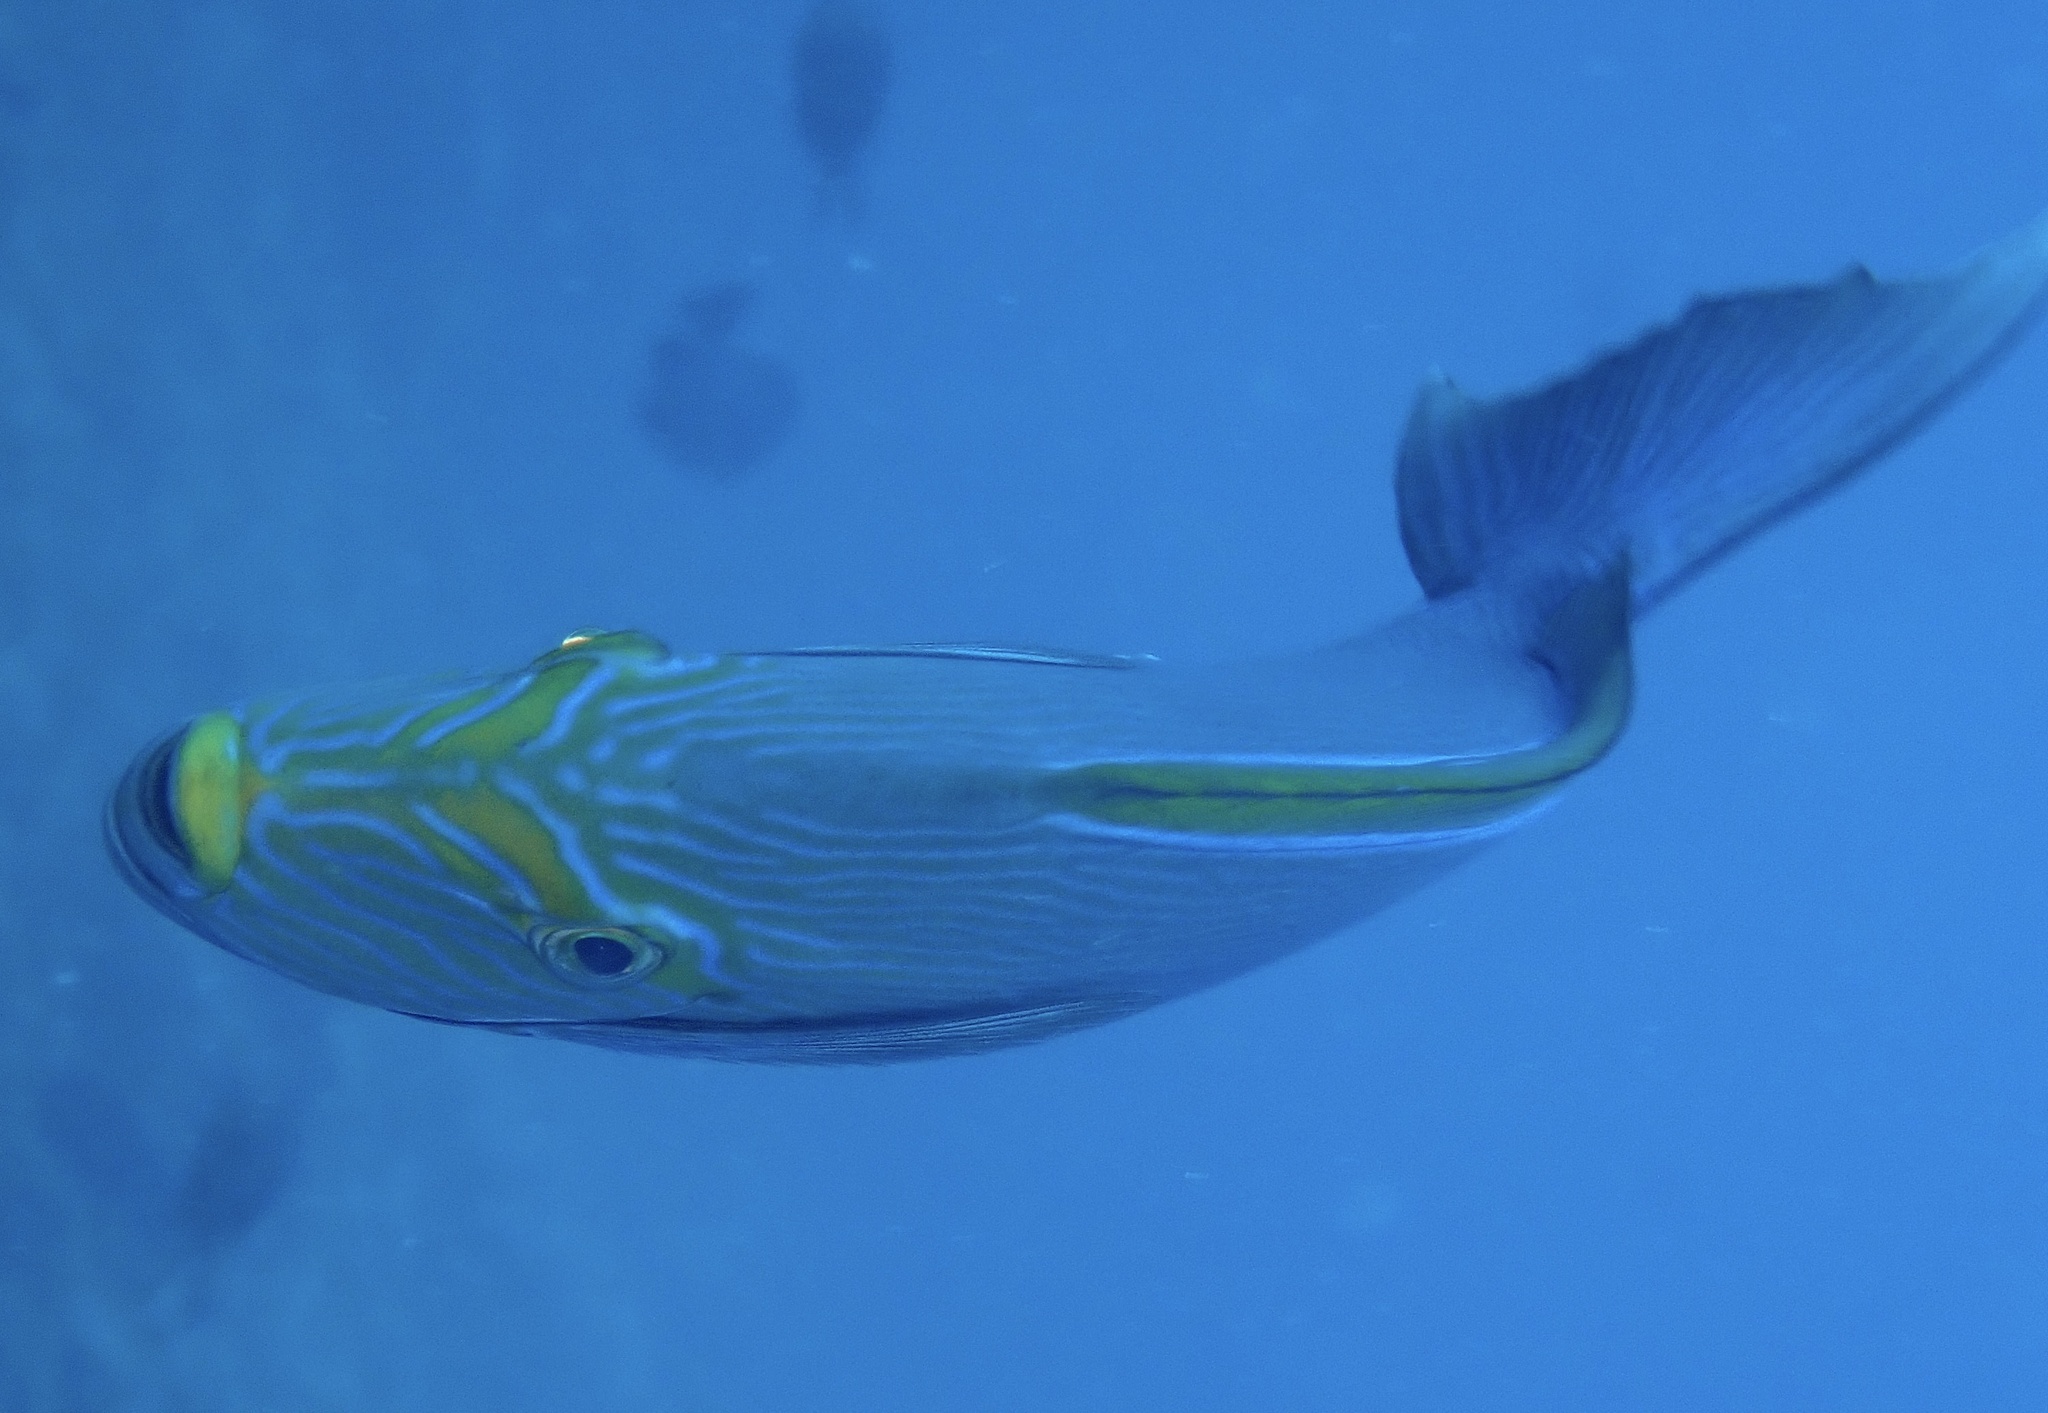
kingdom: Animalia
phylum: Chordata
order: Perciformes
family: Acanthuridae
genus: Acanthurus
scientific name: Acanthurus mata
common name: Bleeker's surgeonfish
